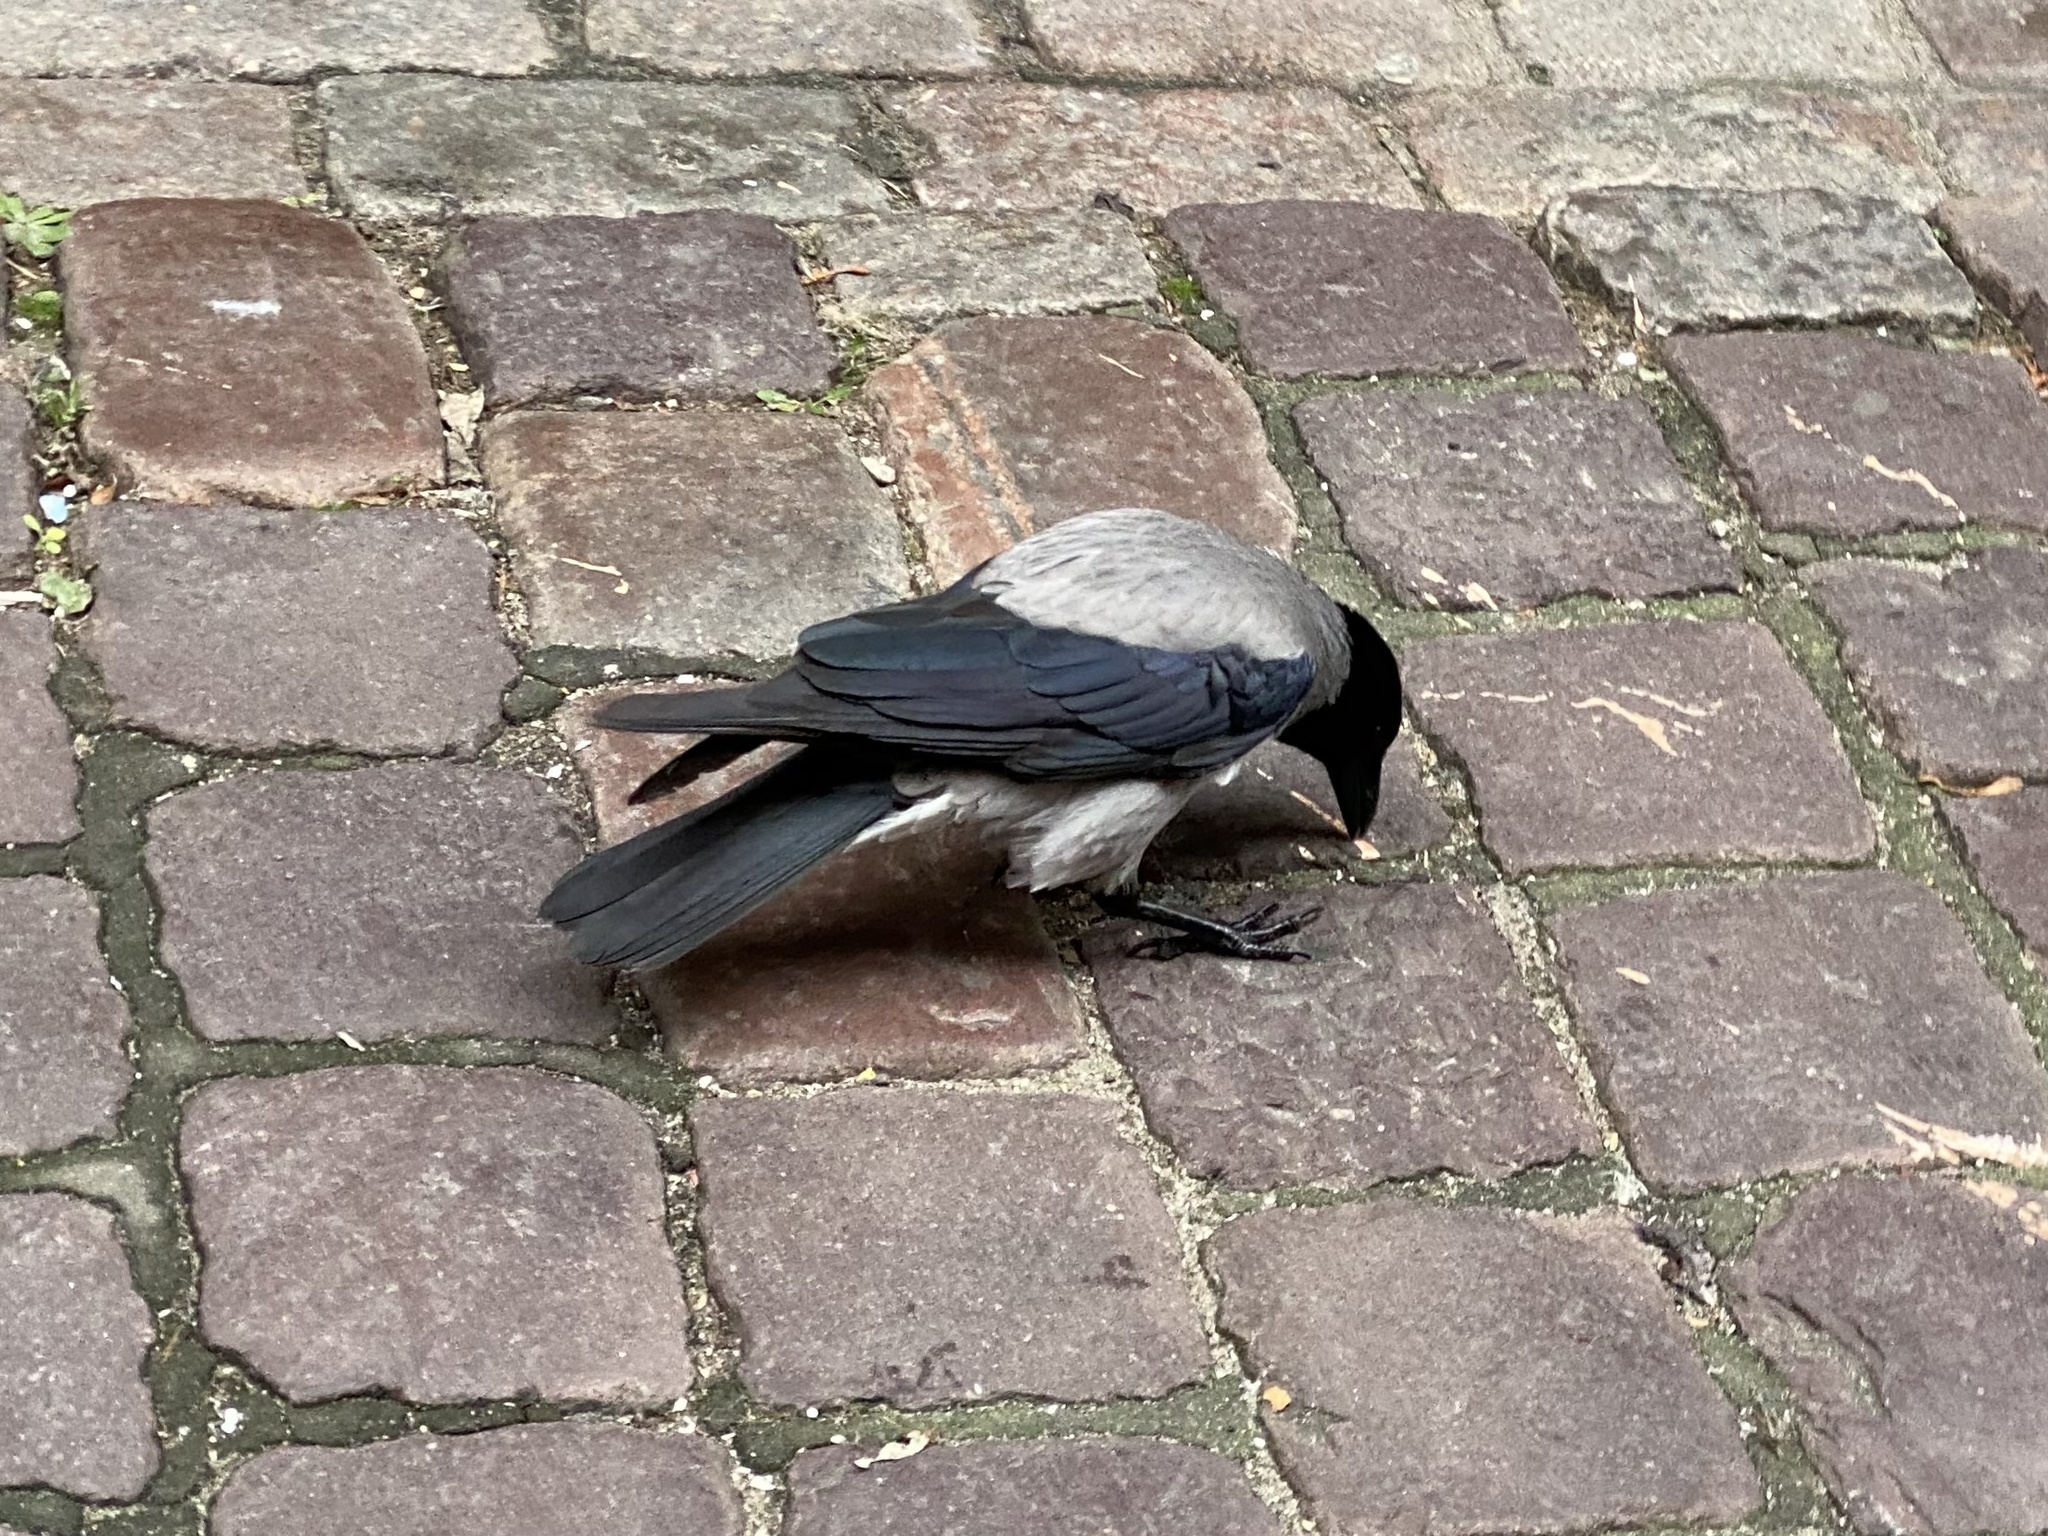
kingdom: Animalia
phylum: Chordata
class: Aves
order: Passeriformes
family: Corvidae
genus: Corvus
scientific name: Corvus cornix
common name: Hooded crow
